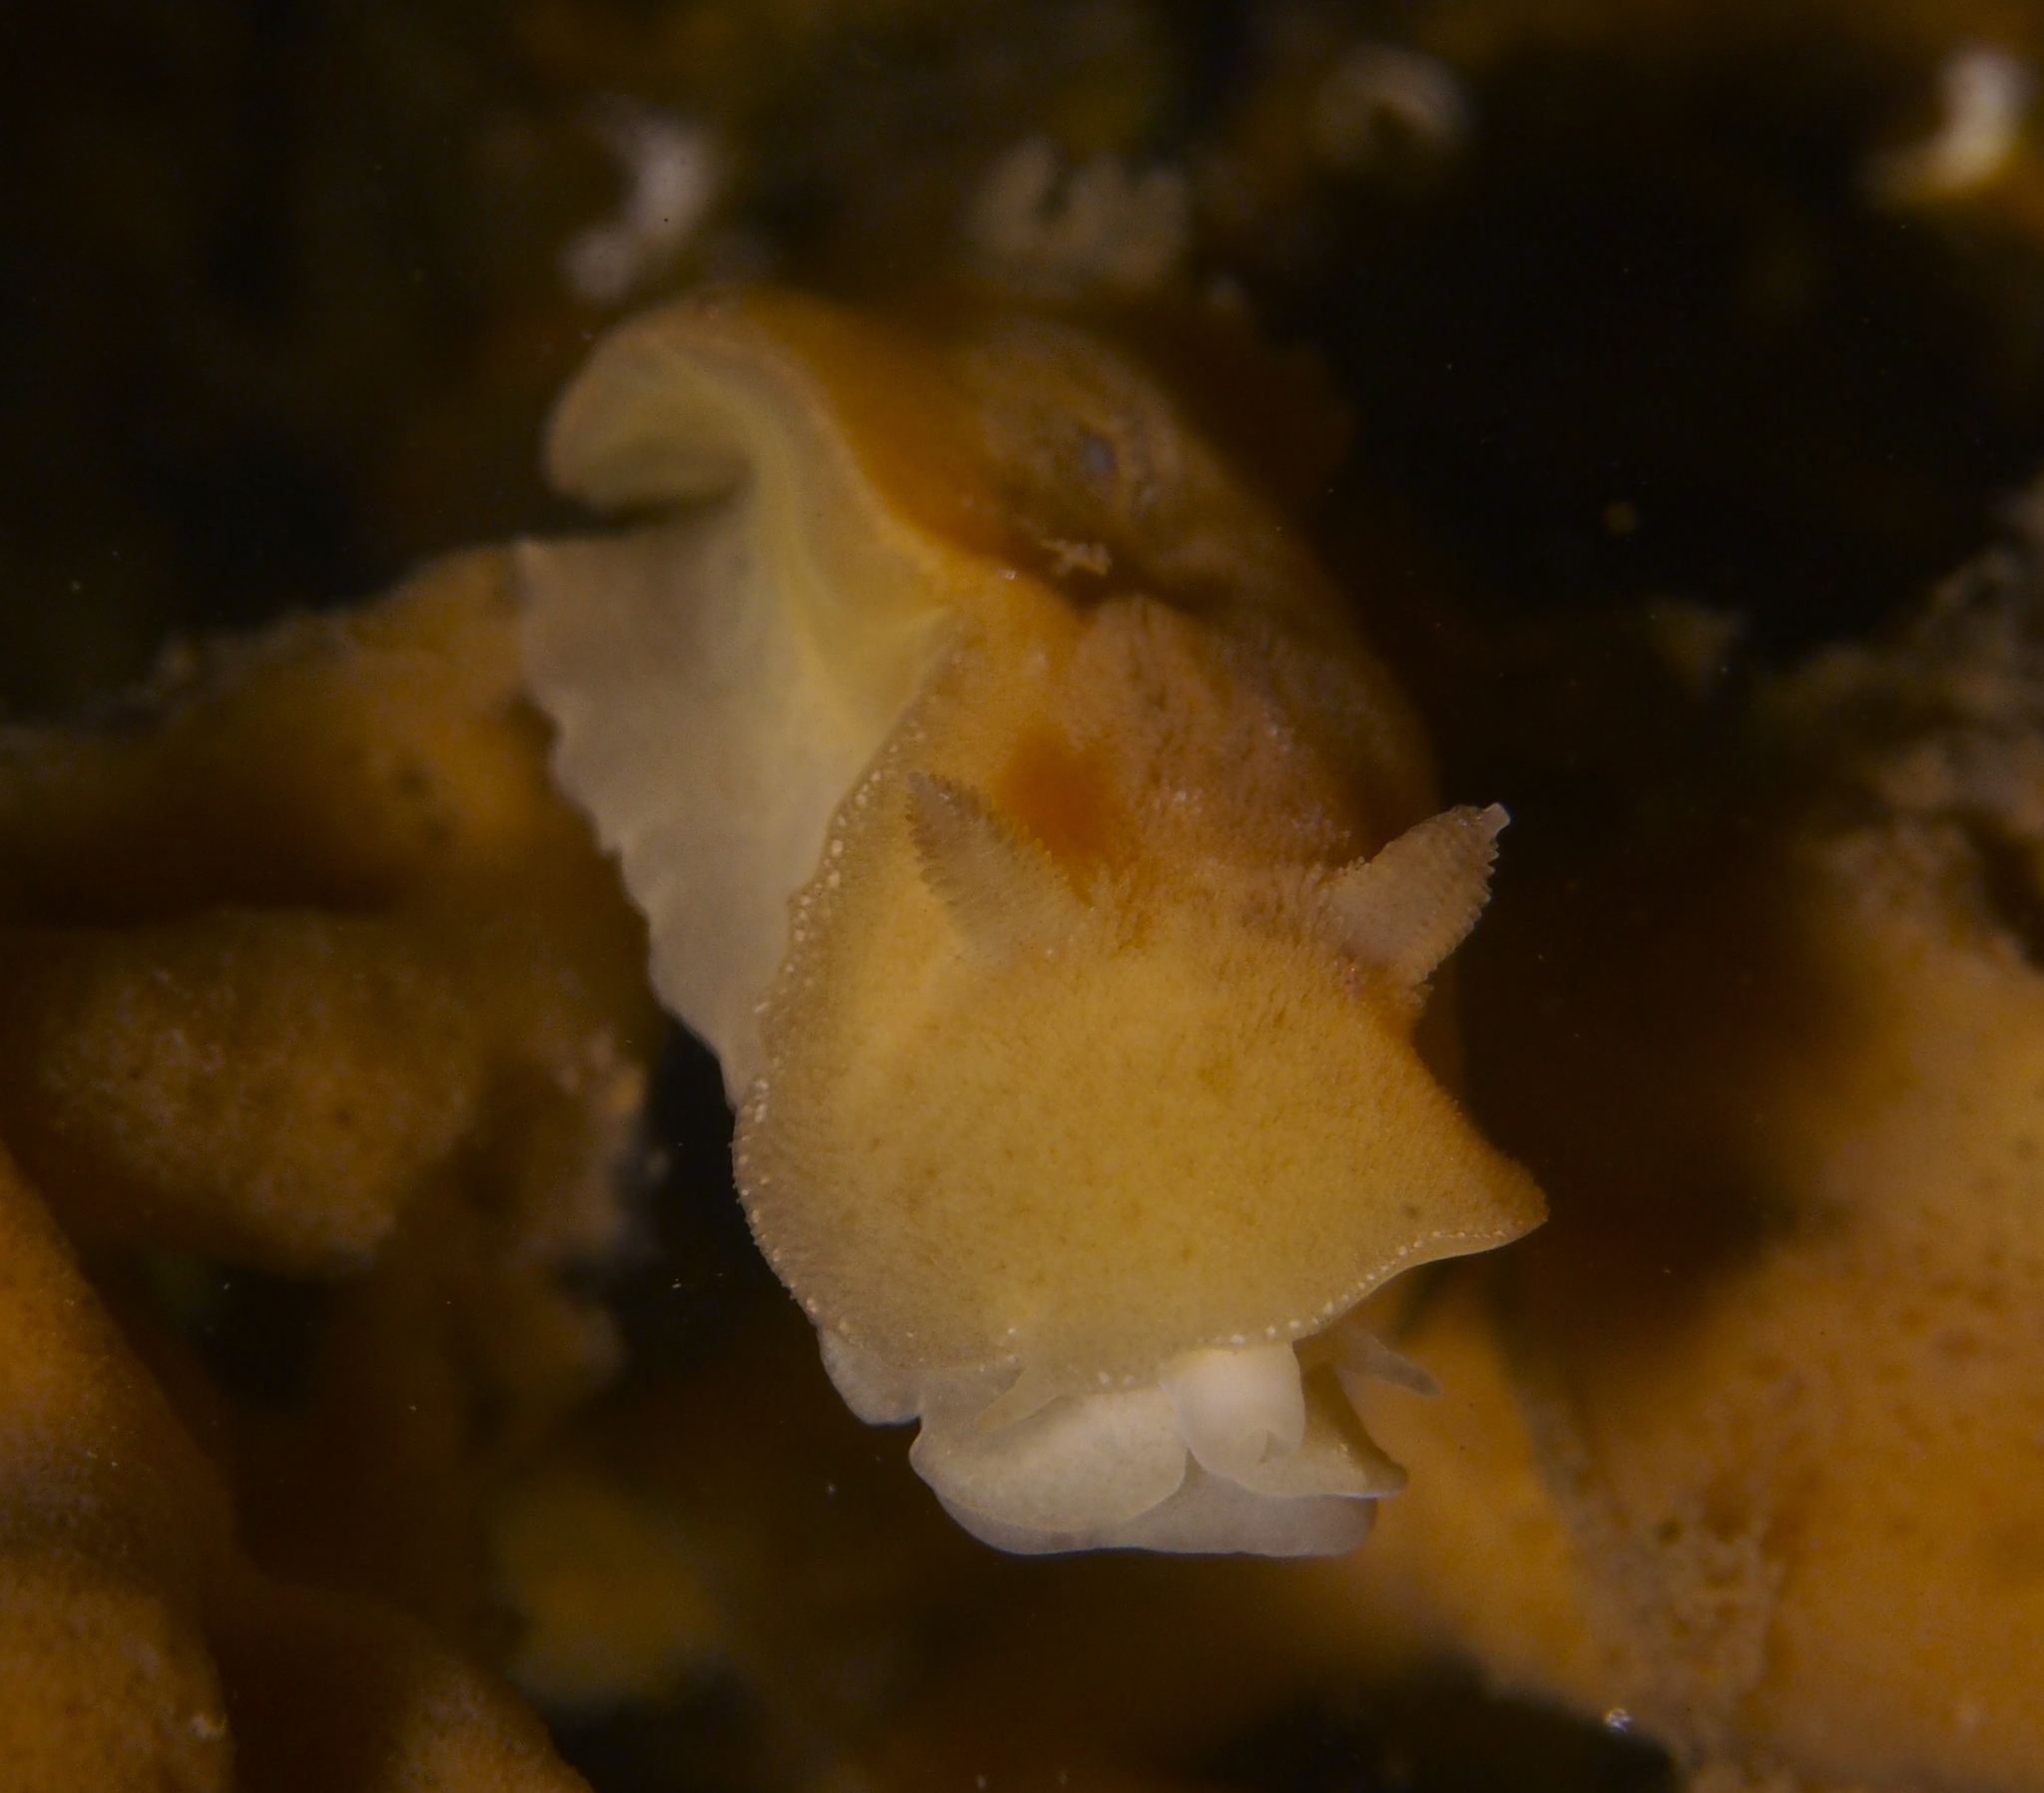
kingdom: Animalia
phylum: Mollusca
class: Gastropoda
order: Nudibranchia
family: Discodorididae
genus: Jorunna
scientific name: Jorunna tomentosa
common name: Grey sea slug
